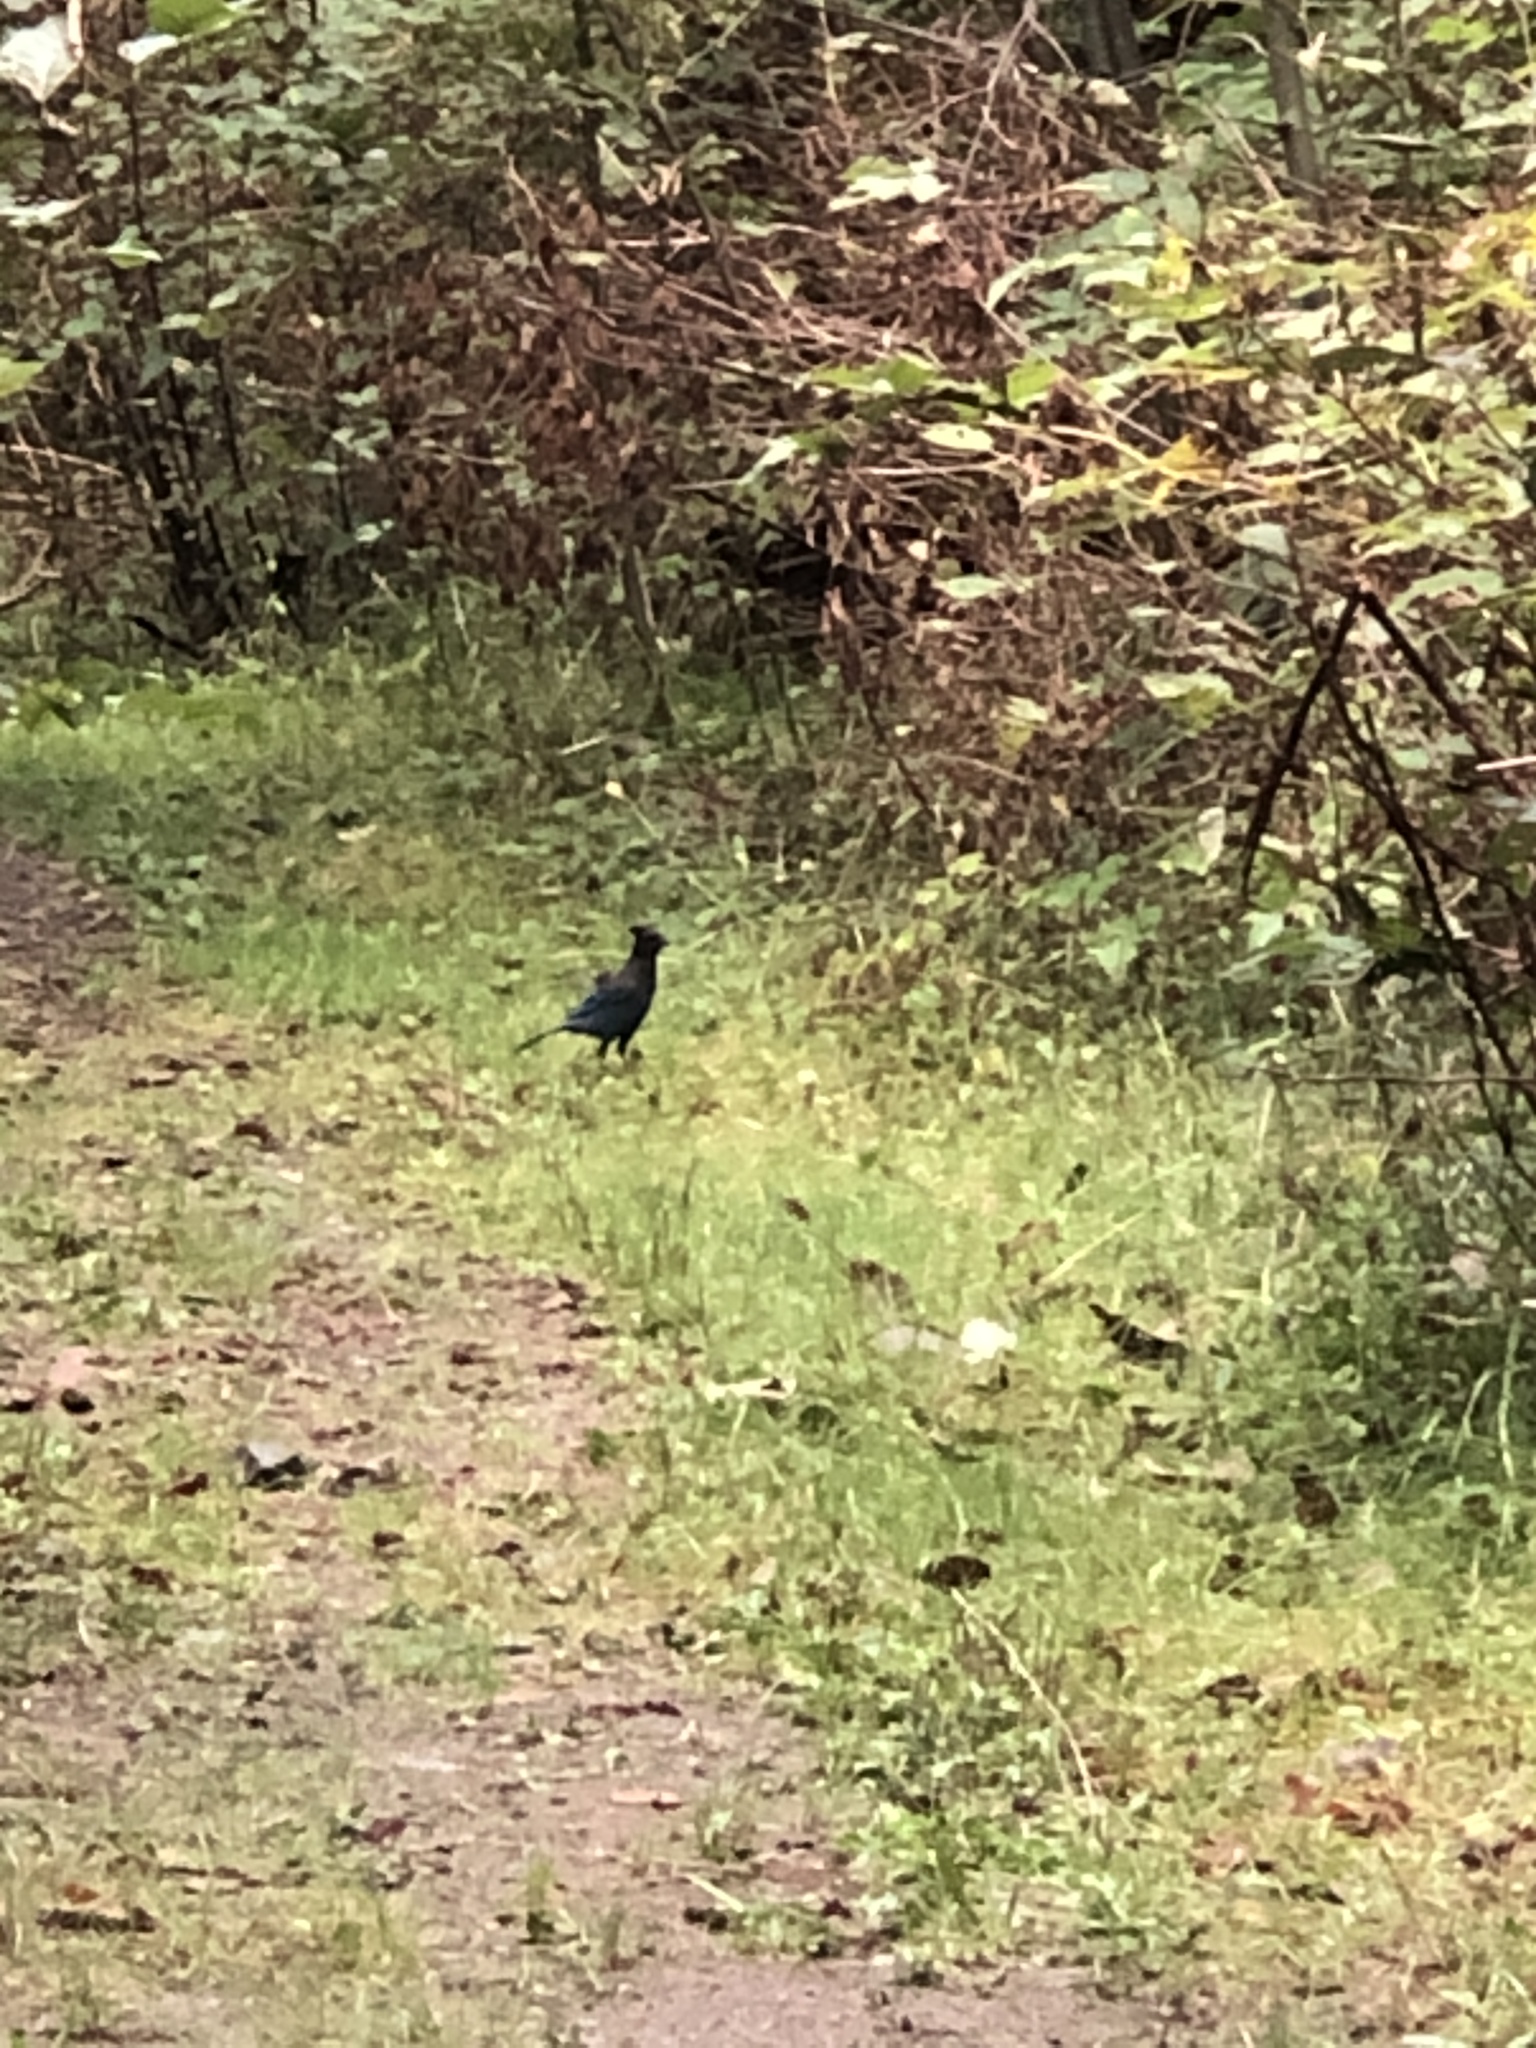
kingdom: Animalia
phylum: Chordata
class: Aves
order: Passeriformes
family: Corvidae
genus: Cyanocitta
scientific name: Cyanocitta stelleri
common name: Steller's jay
